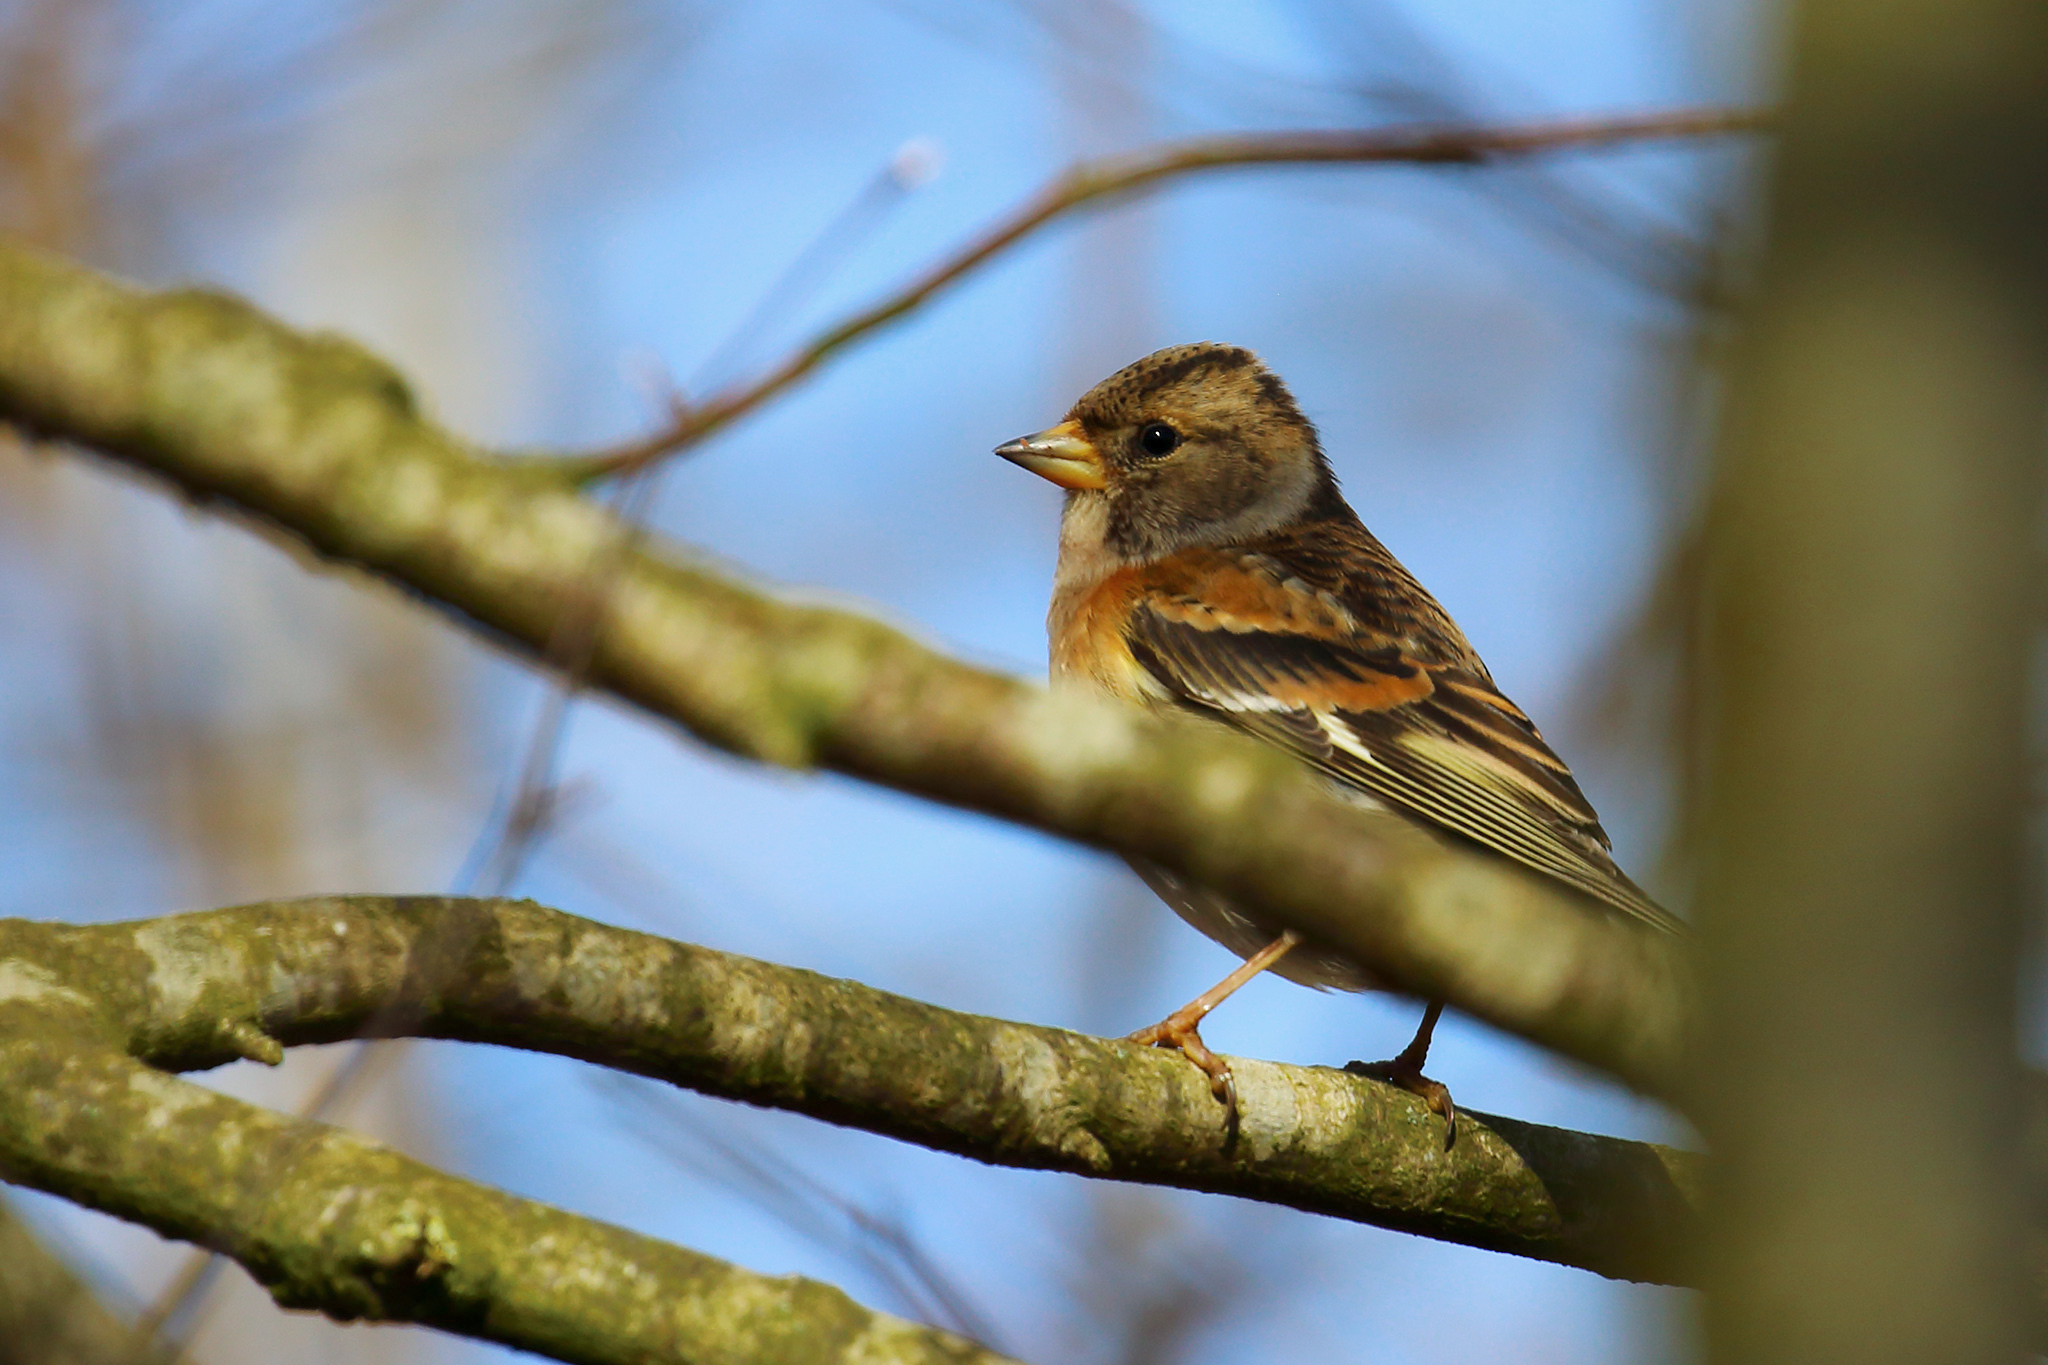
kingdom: Animalia
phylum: Chordata
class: Aves
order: Passeriformes
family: Fringillidae
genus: Fringilla
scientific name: Fringilla montifringilla
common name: Brambling
